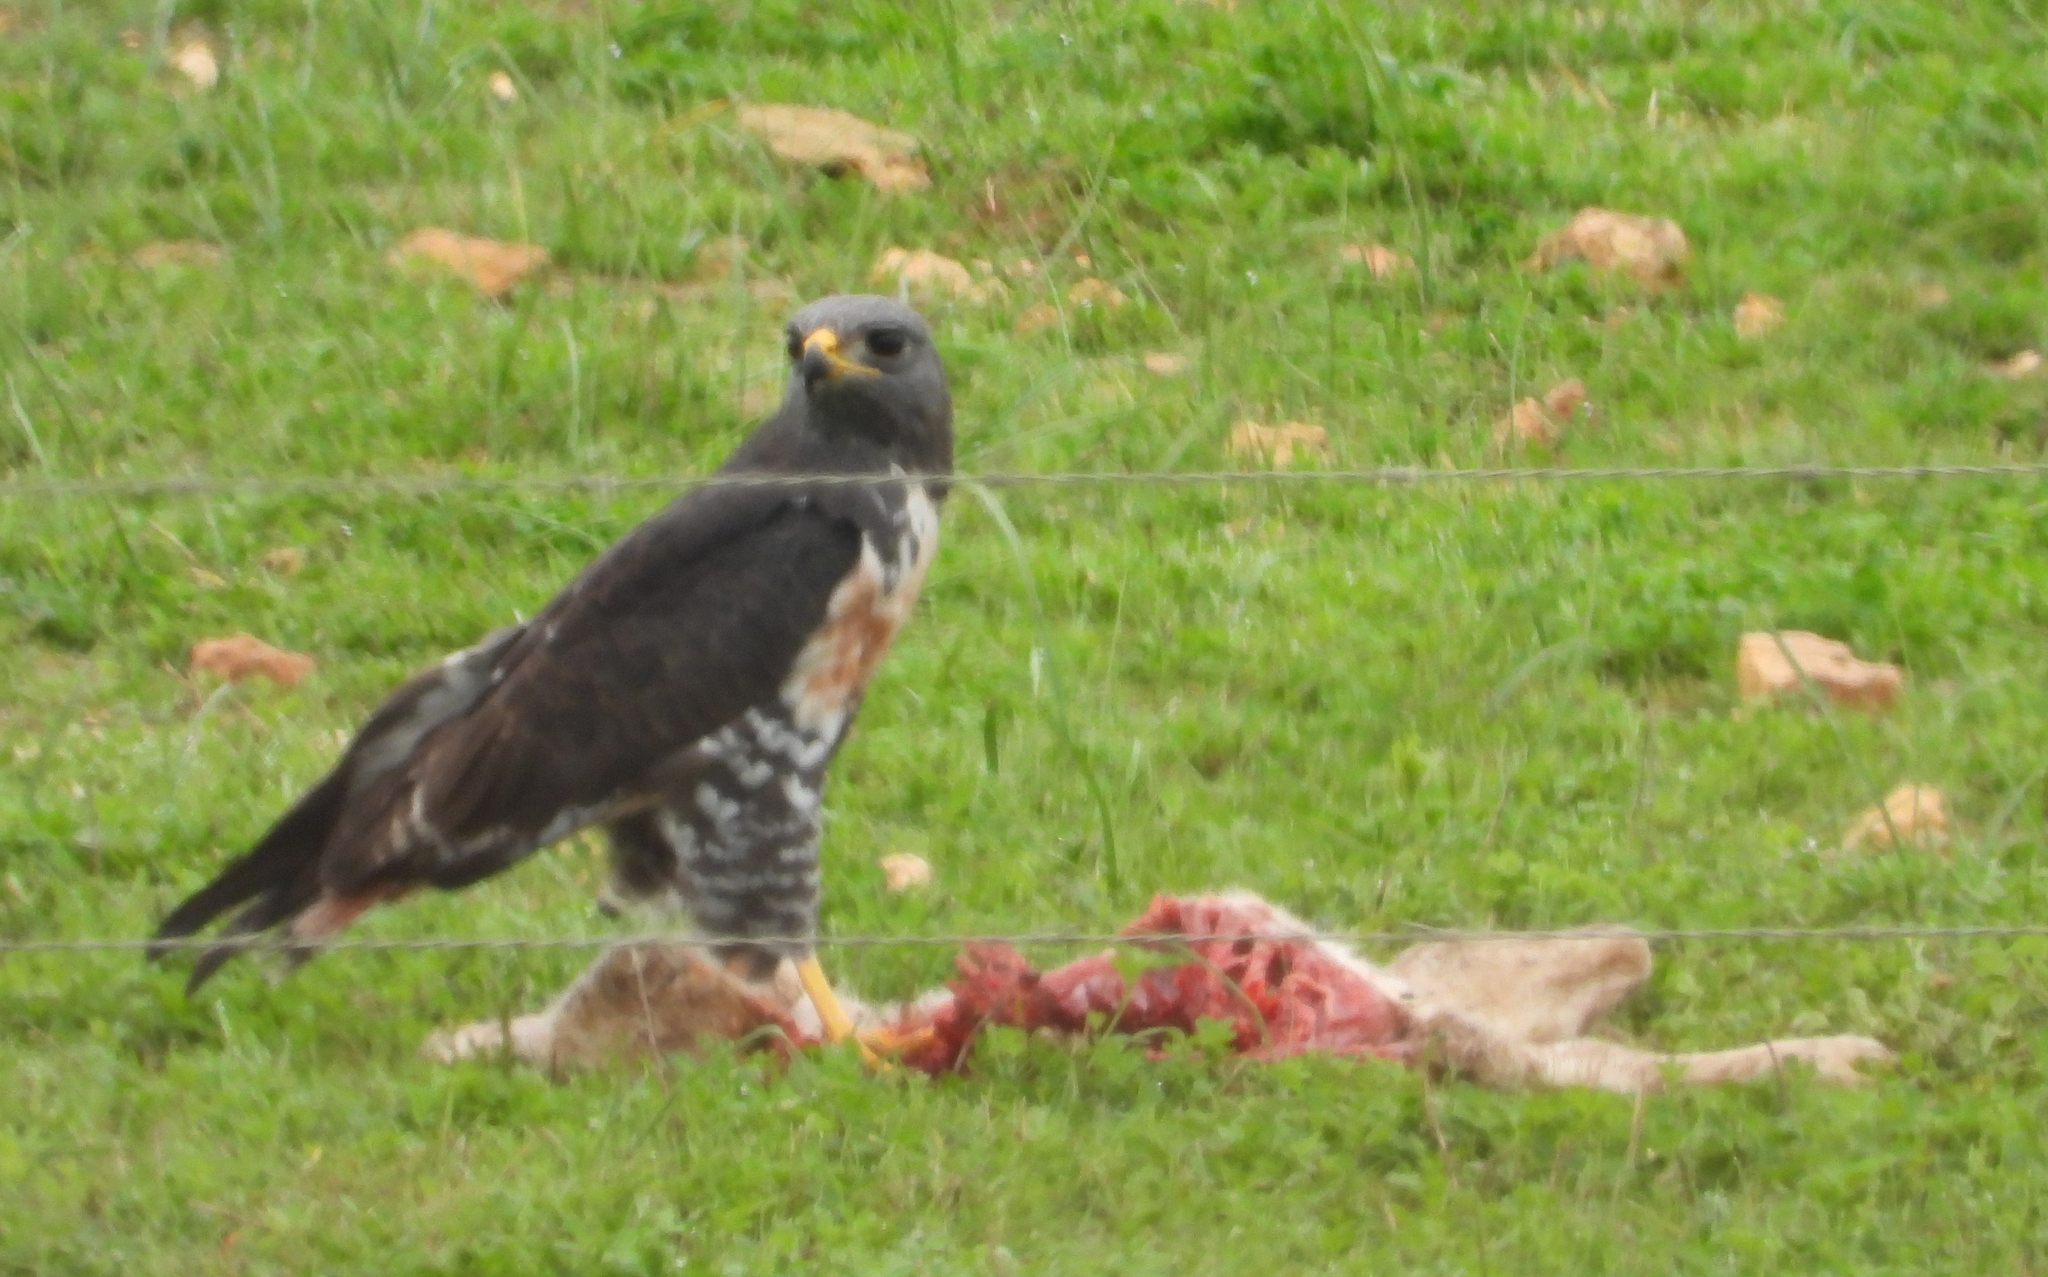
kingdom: Animalia
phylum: Chordata
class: Aves
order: Accipitriformes
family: Accipitridae
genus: Buteo
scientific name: Buteo rufofuscus
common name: Jackal buzzard
